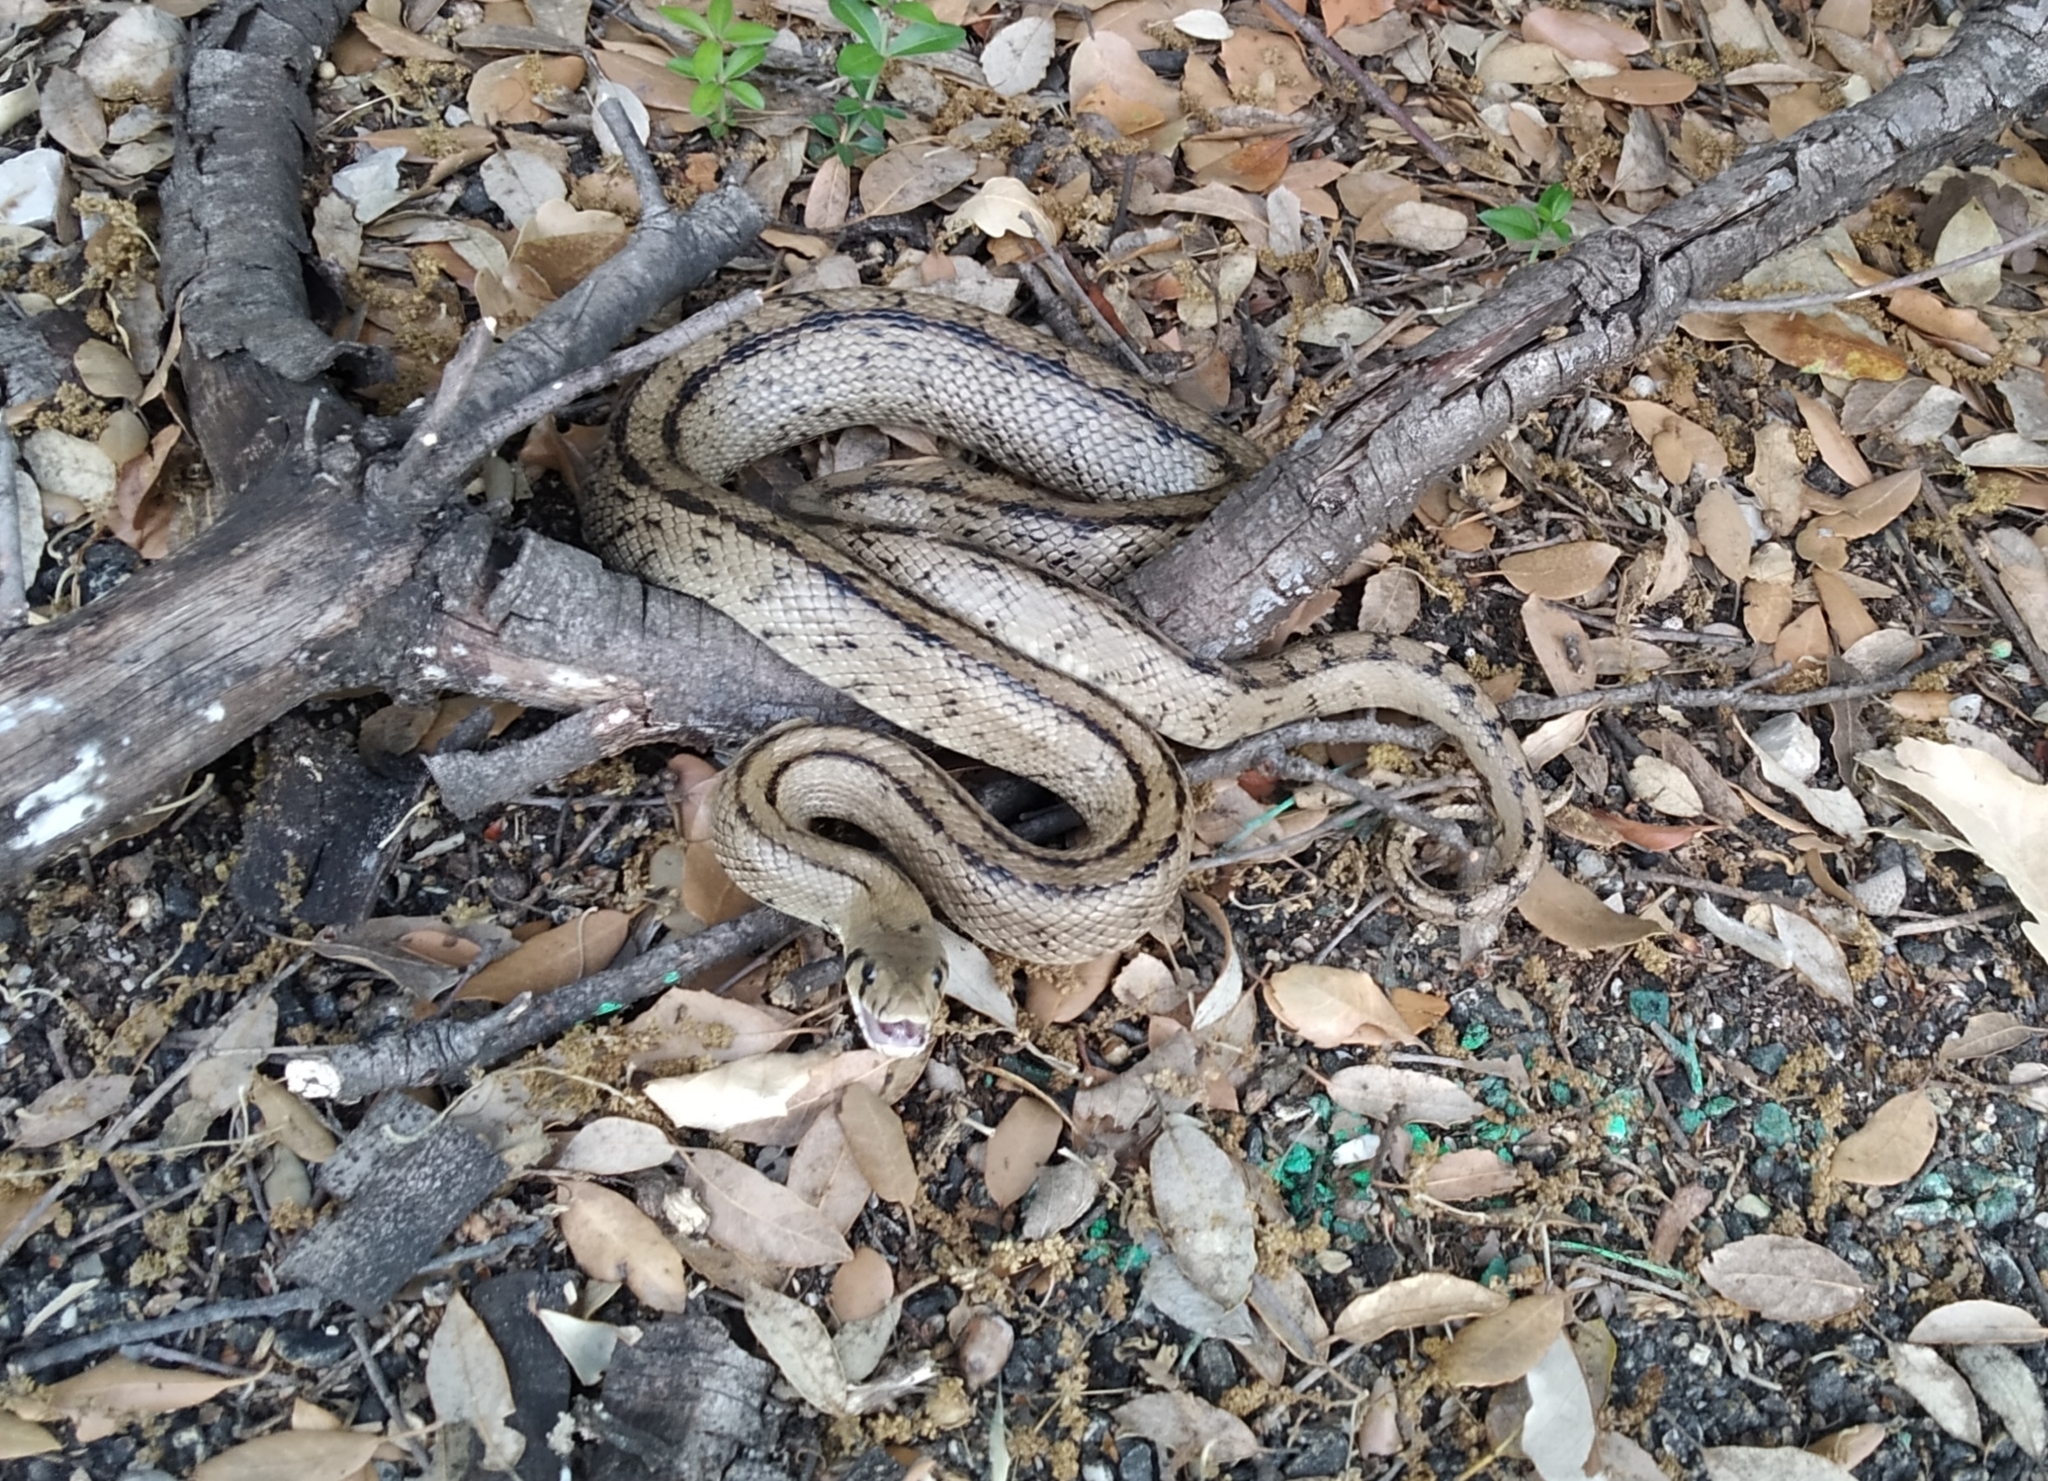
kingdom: Animalia
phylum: Chordata
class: Squamata
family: Colubridae
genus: Zamenis
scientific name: Zamenis scalaris
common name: Ladder snakes
